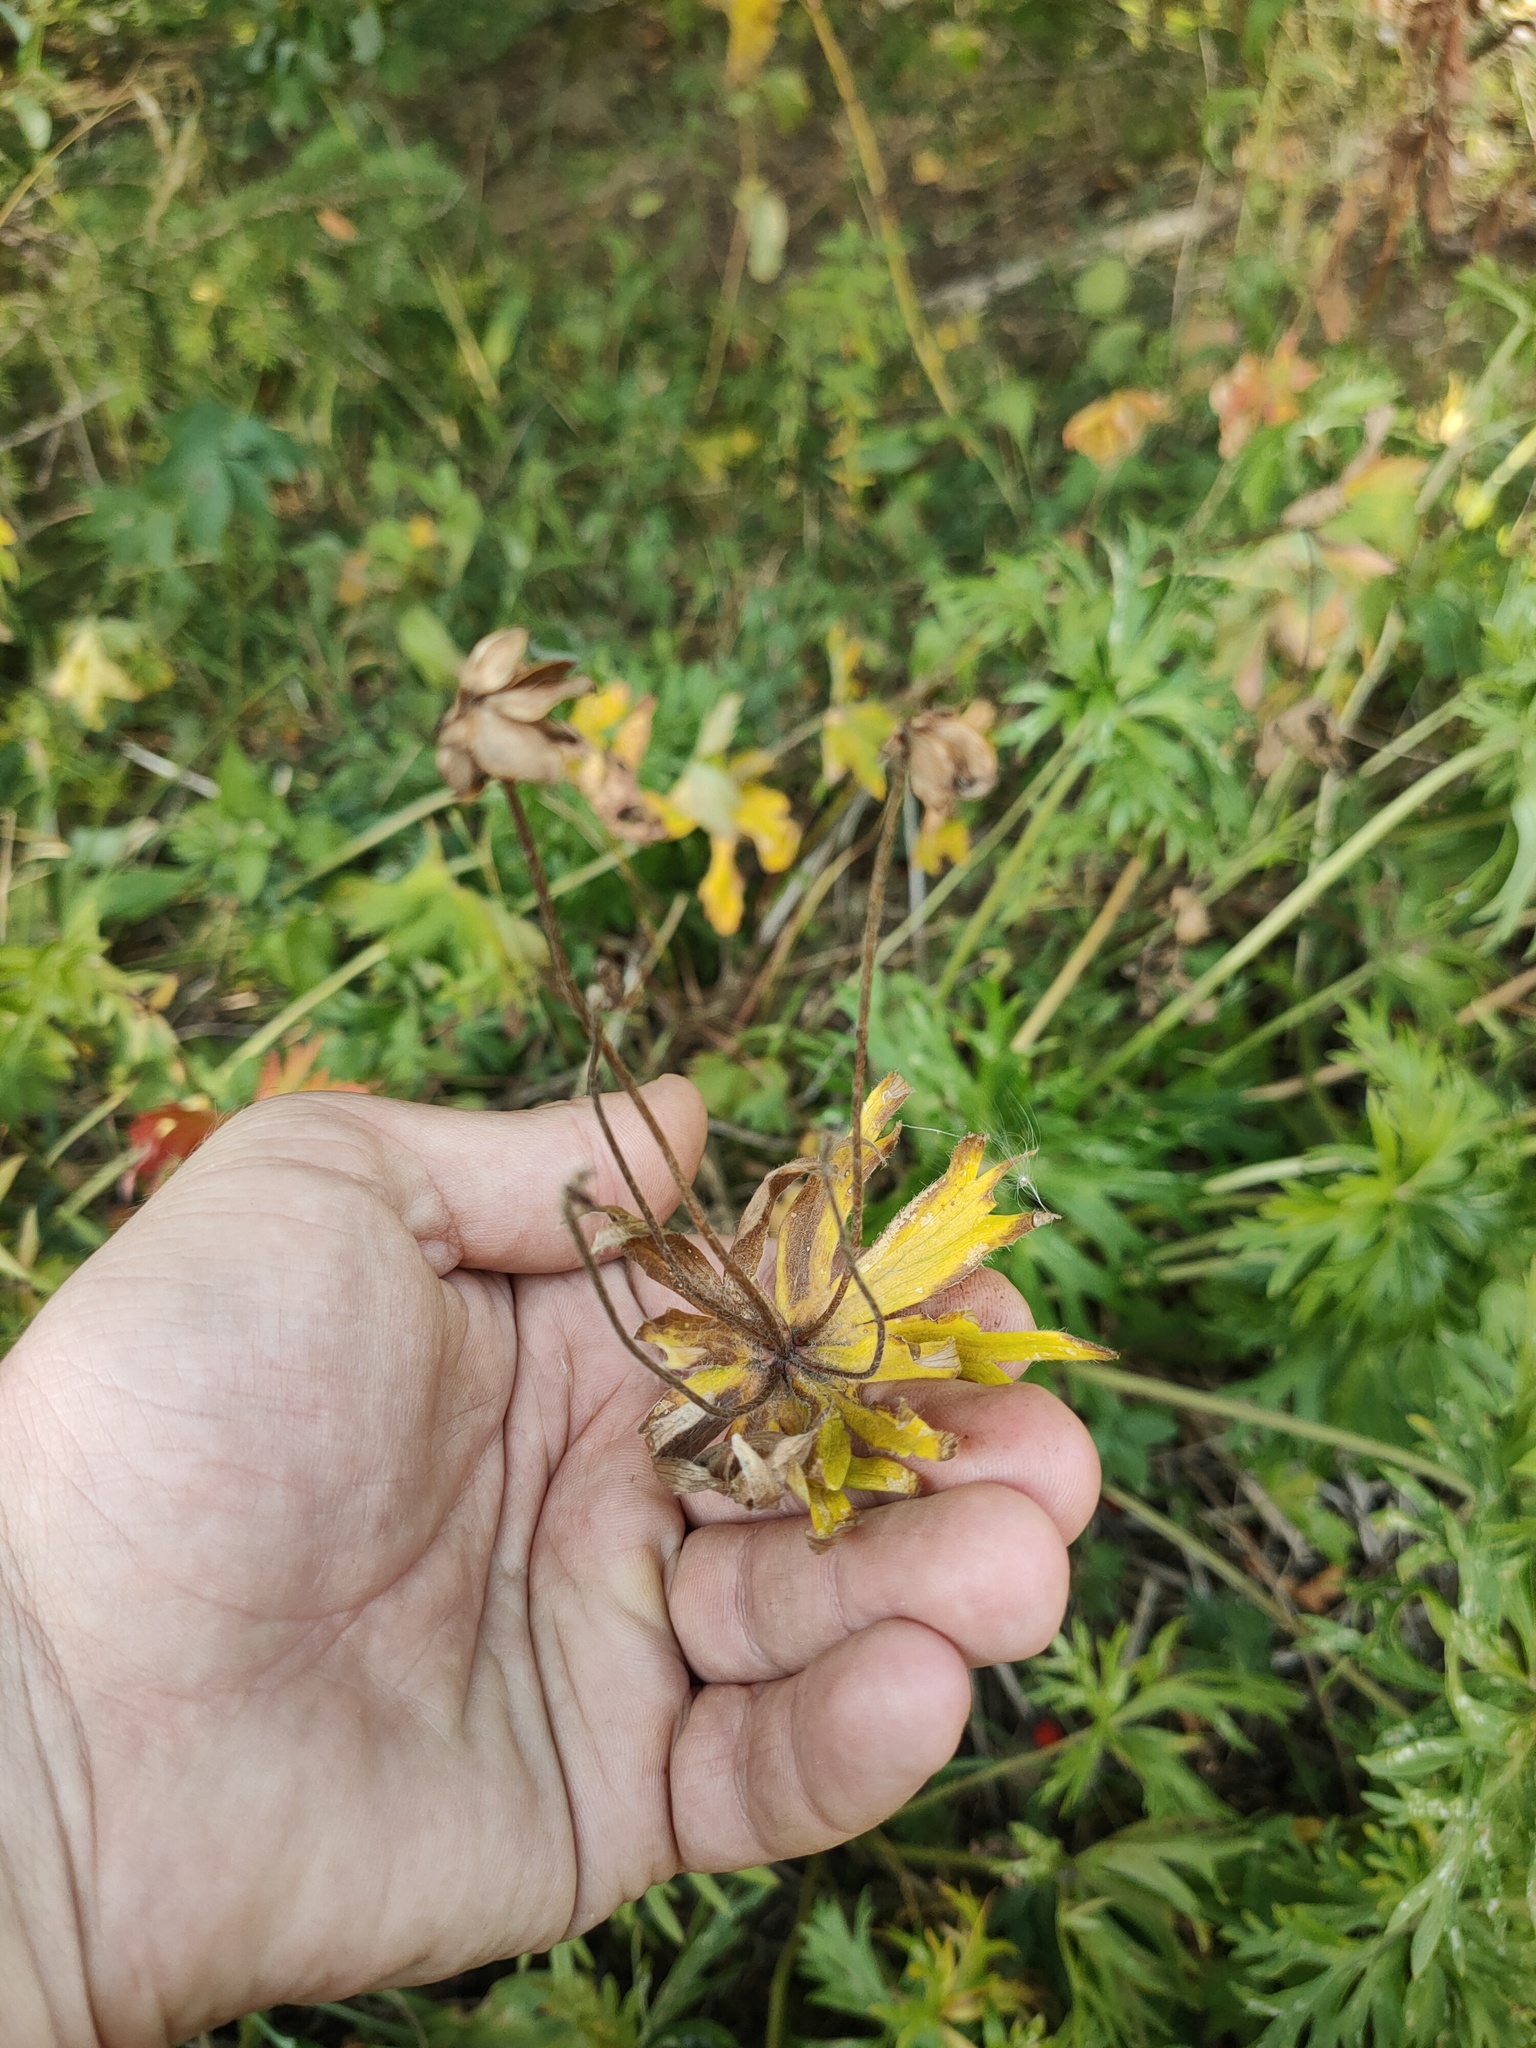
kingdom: Plantae
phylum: Tracheophyta
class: Magnoliopsida
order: Ranunculales
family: Ranunculaceae
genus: Anemonastrum
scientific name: Anemonastrum biarmiense
